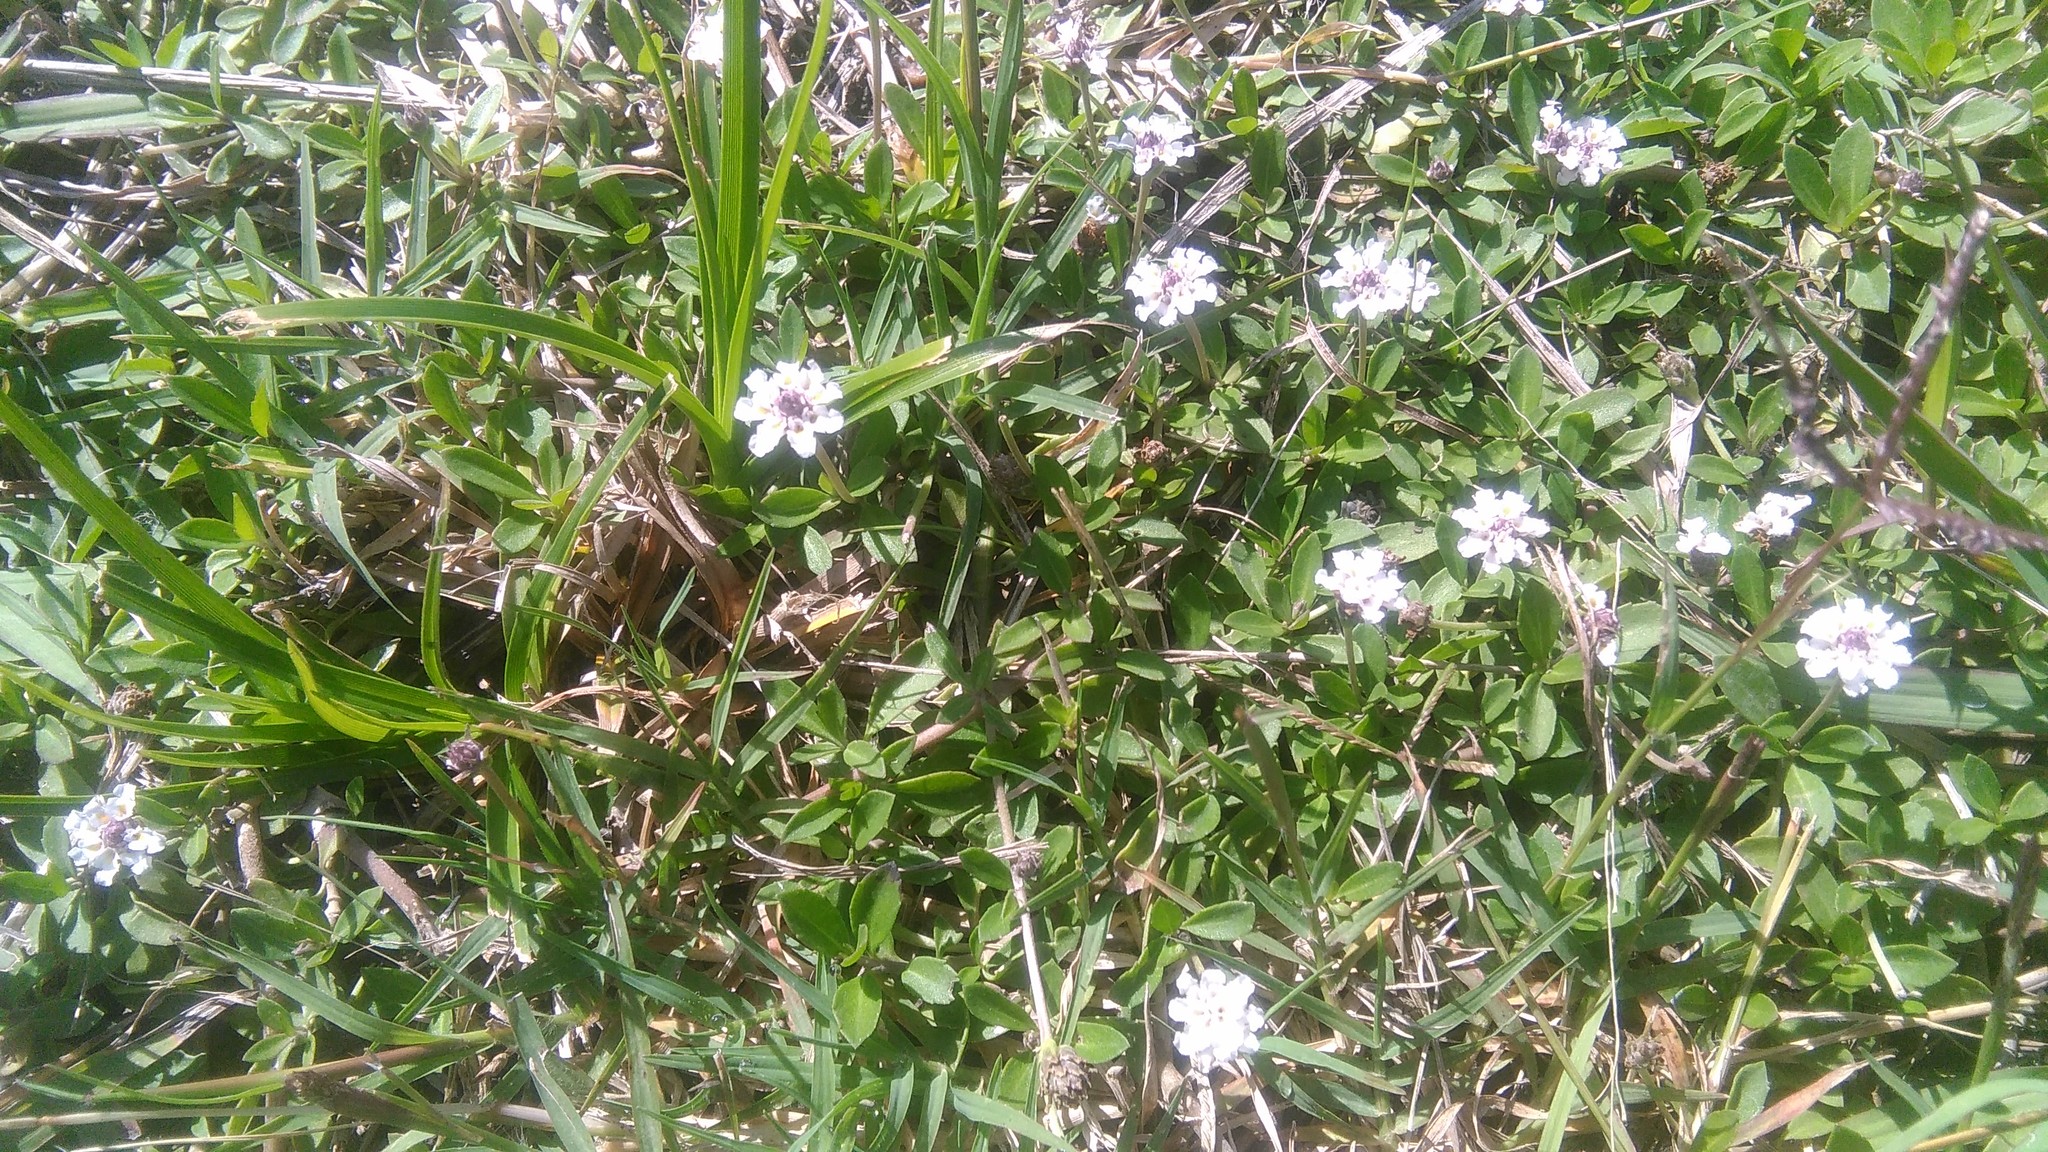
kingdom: Plantae
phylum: Tracheophyta
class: Magnoliopsida
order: Lamiales
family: Verbenaceae
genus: Phyla
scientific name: Phyla nodiflora
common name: Frogfruit
